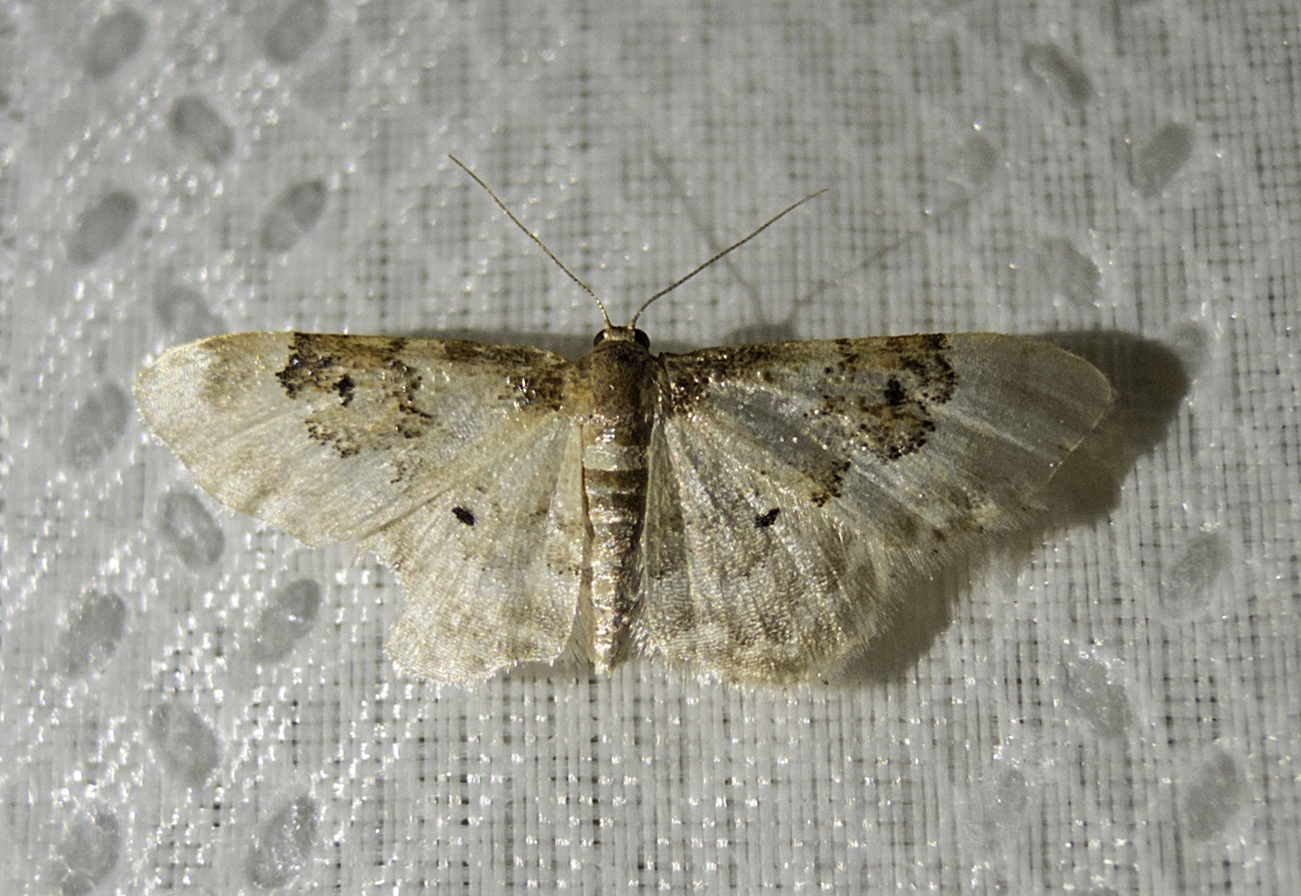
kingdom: Animalia
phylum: Arthropoda
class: Insecta
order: Lepidoptera
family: Geometridae
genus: Idaea
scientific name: Idaea rusticata
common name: Least carpet
